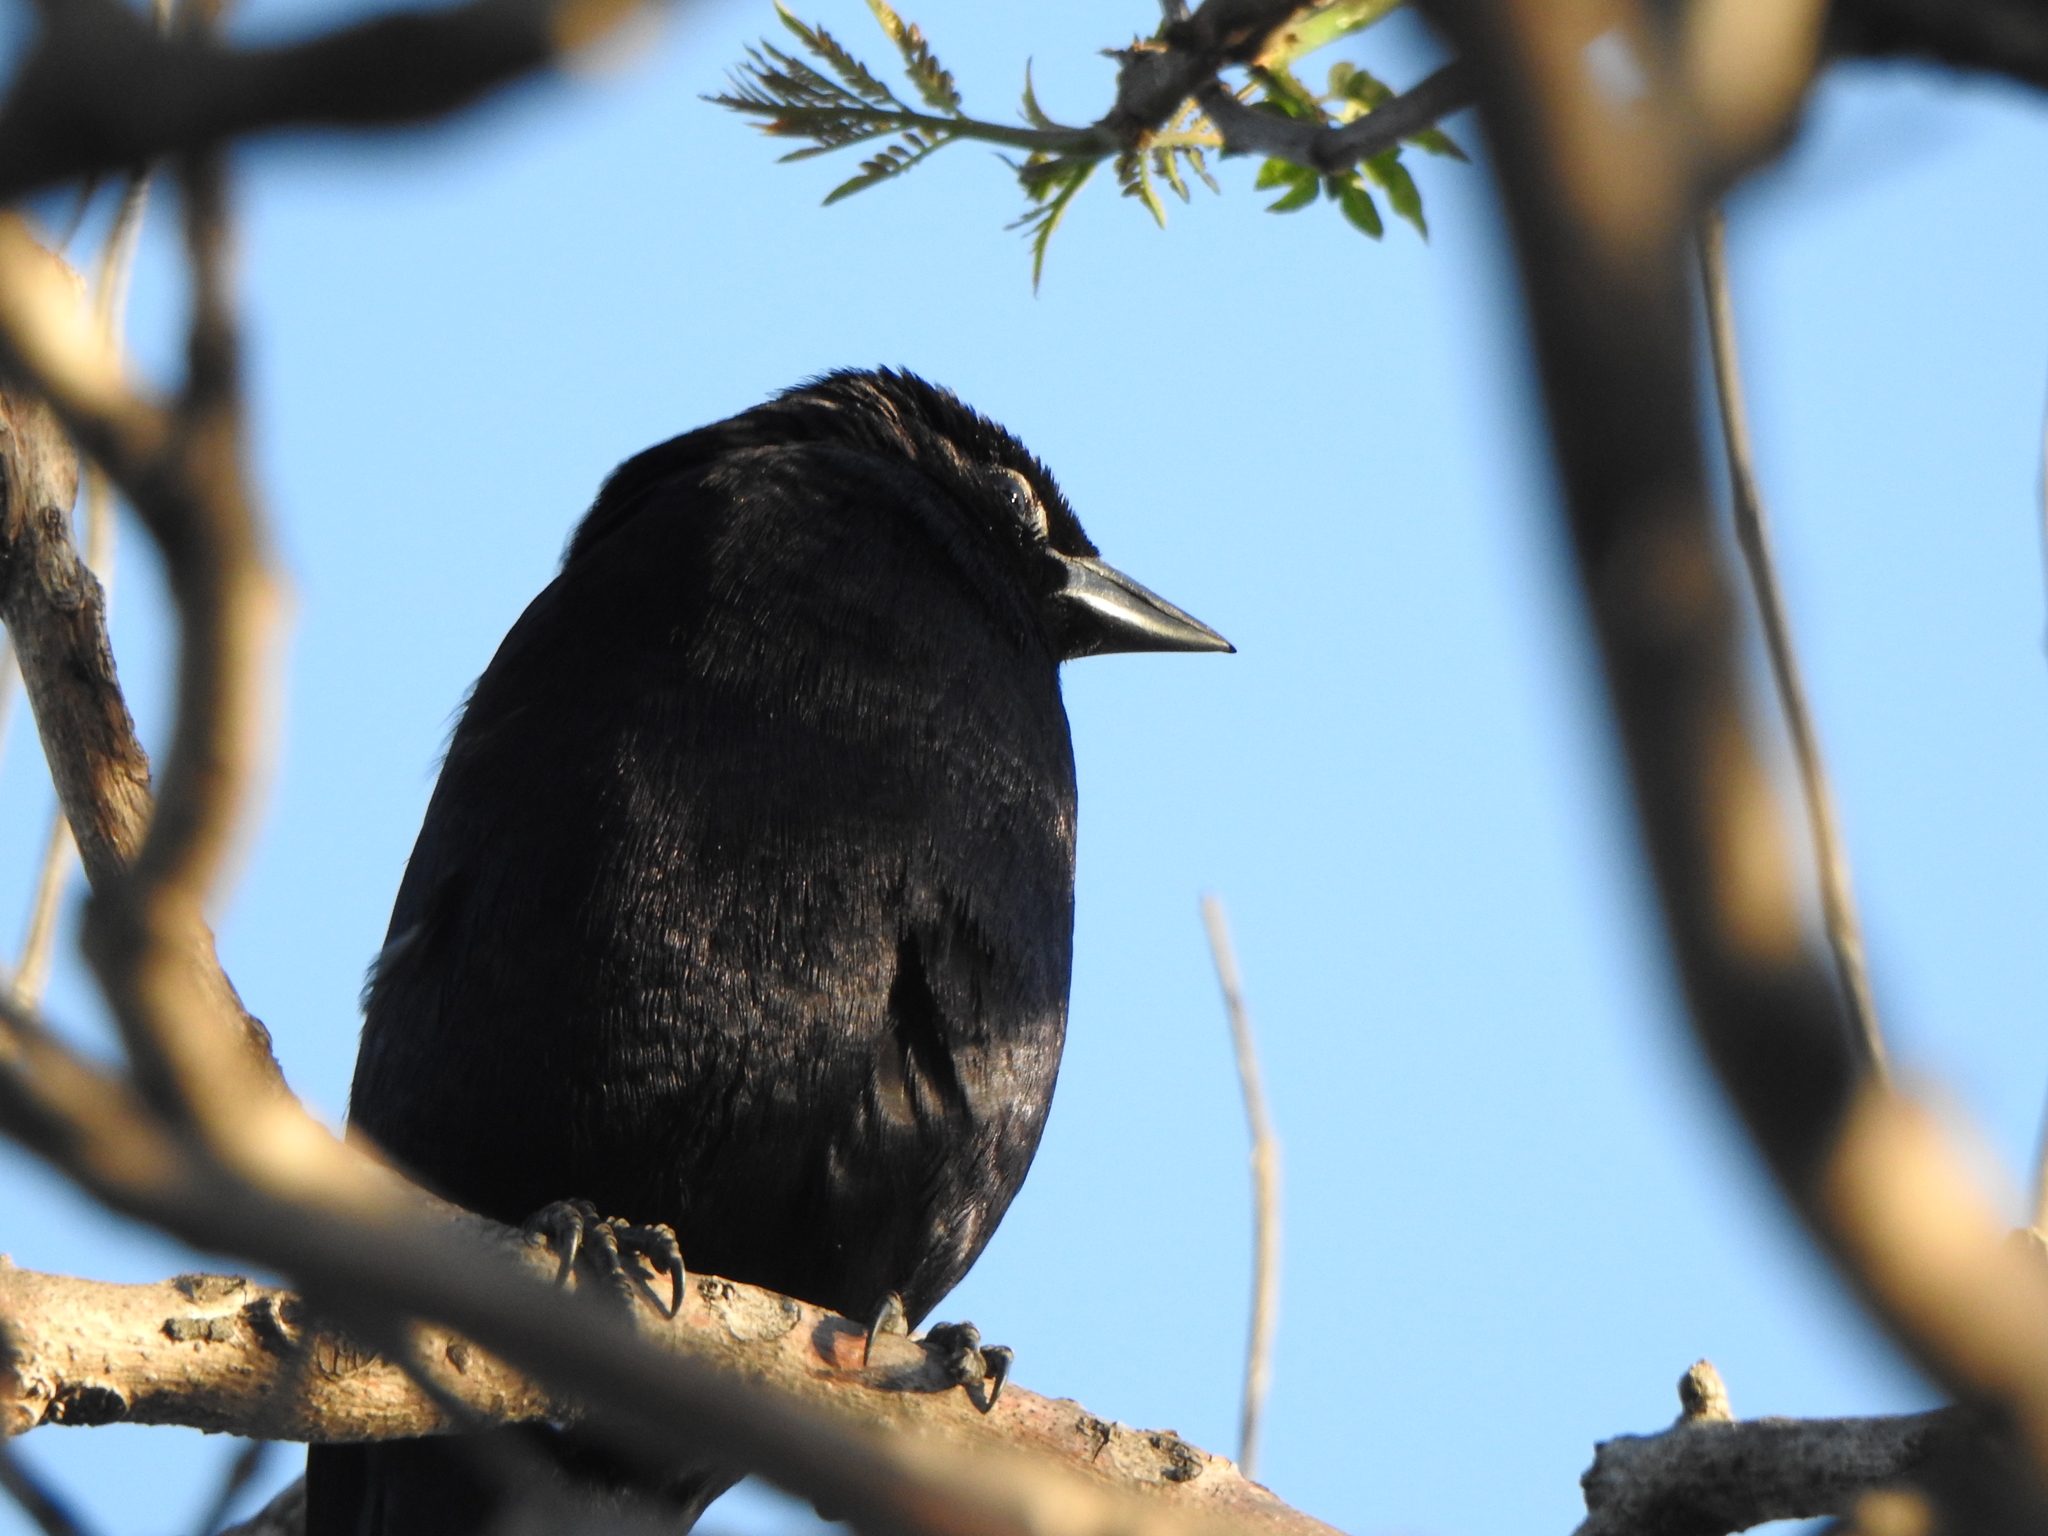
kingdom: Animalia
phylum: Chordata
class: Aves
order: Passeriformes
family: Icteridae
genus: Molothrus
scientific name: Molothrus rufoaxillaris
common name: Screaming cowbird
